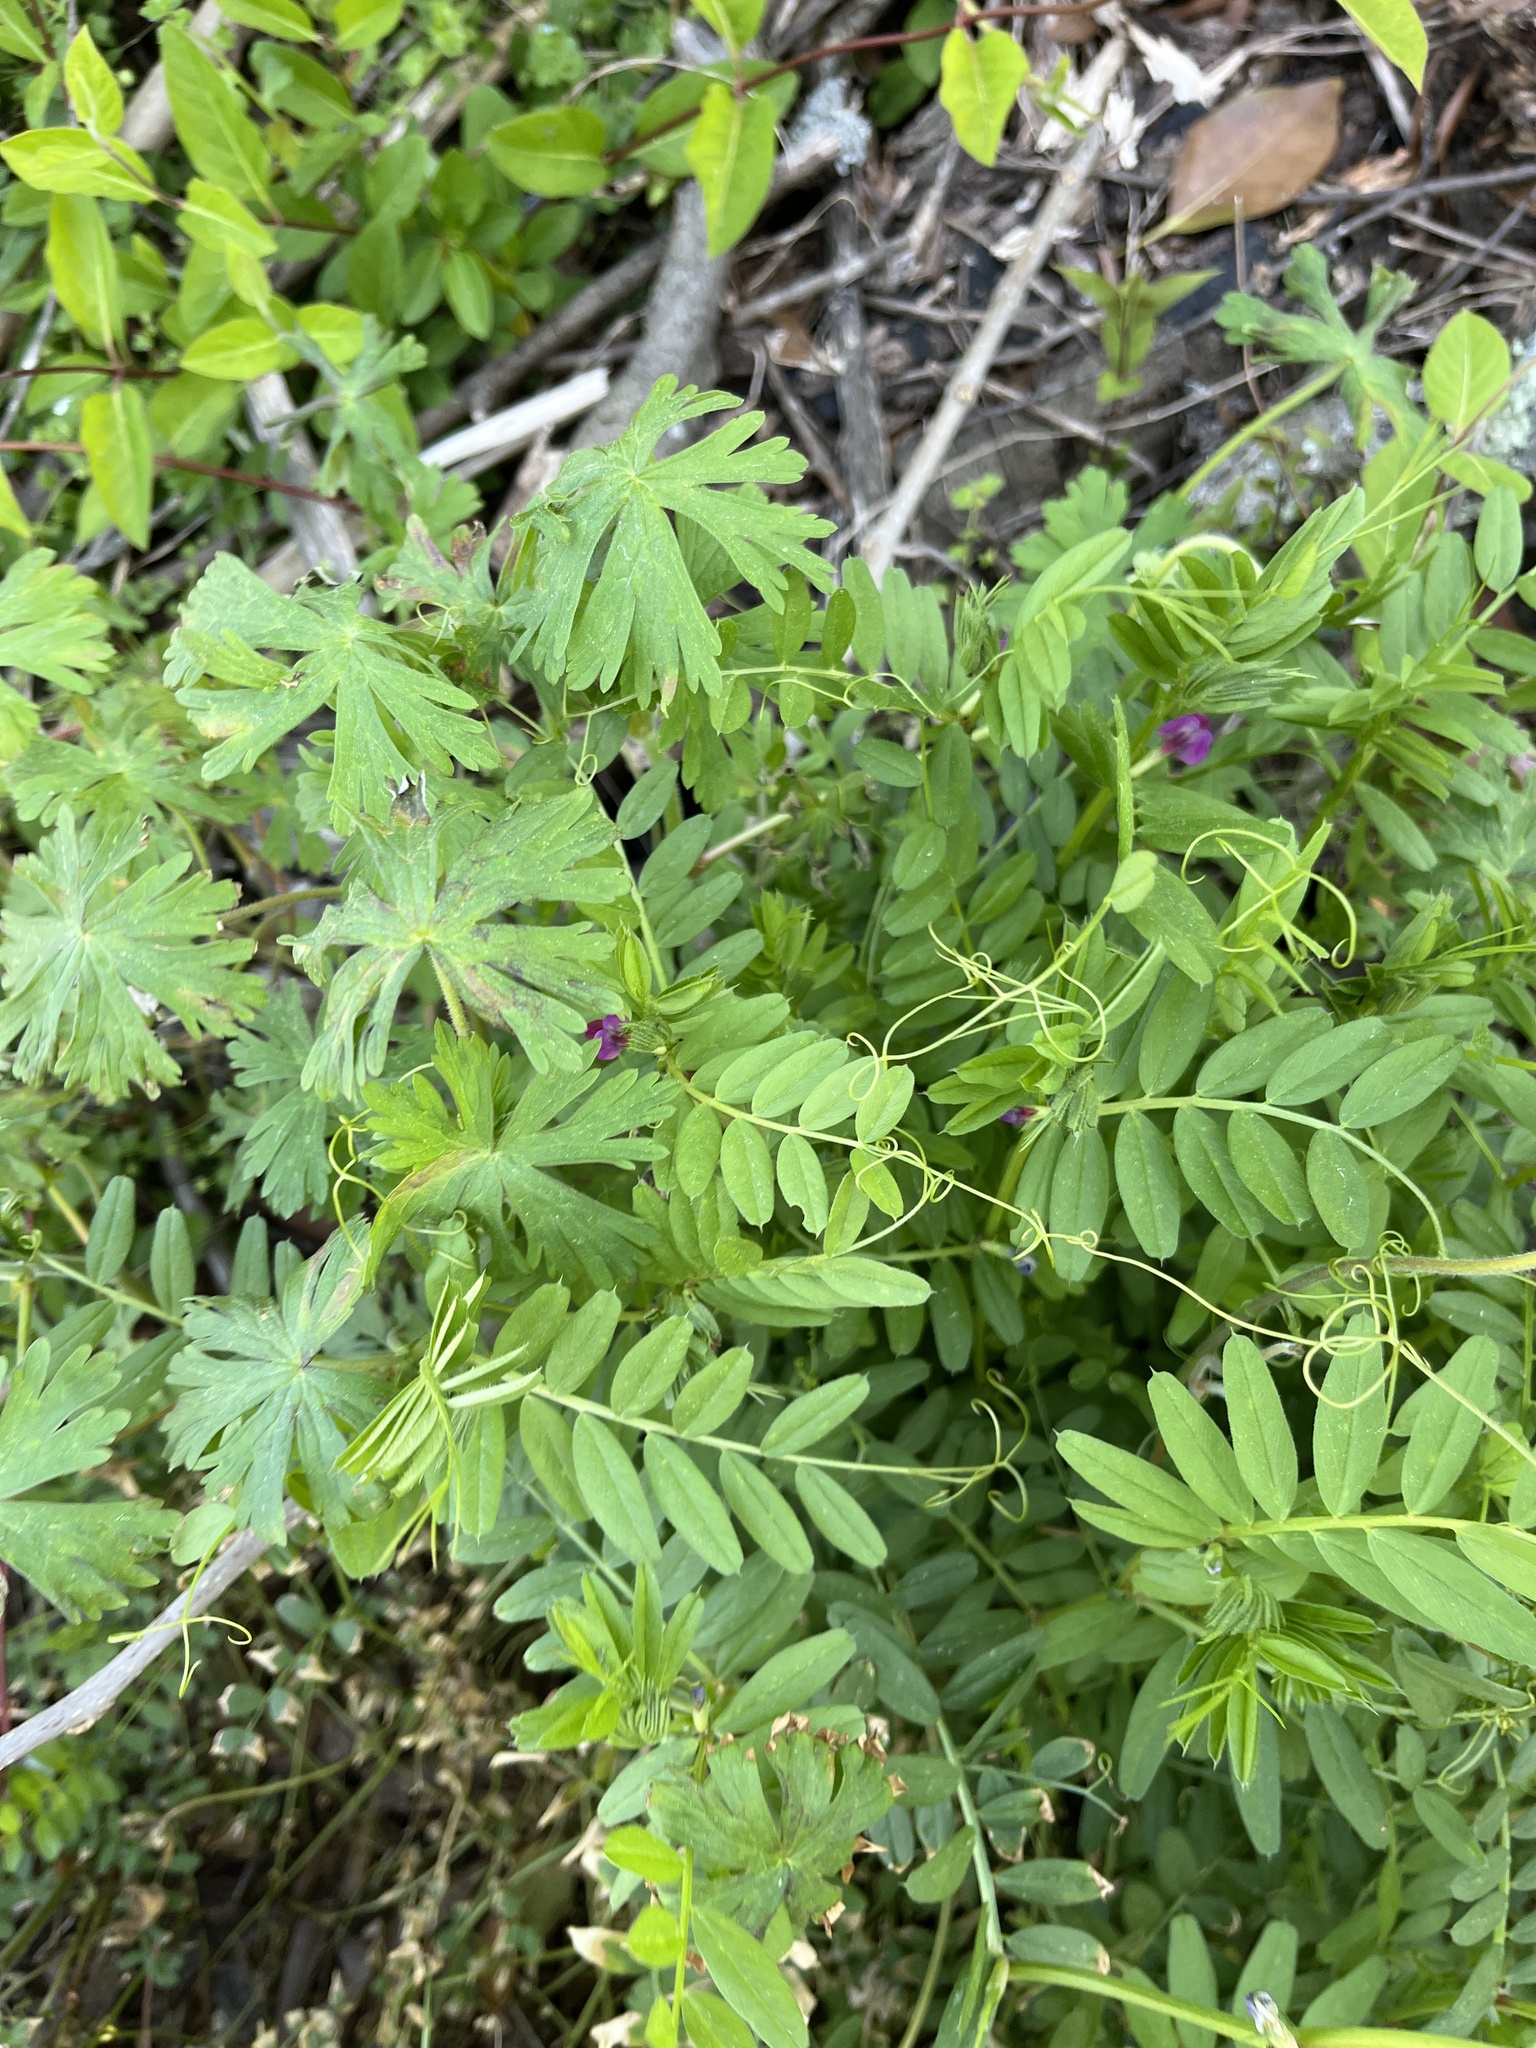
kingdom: Plantae
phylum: Tracheophyta
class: Magnoliopsida
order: Fabales
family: Fabaceae
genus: Vicia
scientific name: Vicia sativa
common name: Garden vetch
